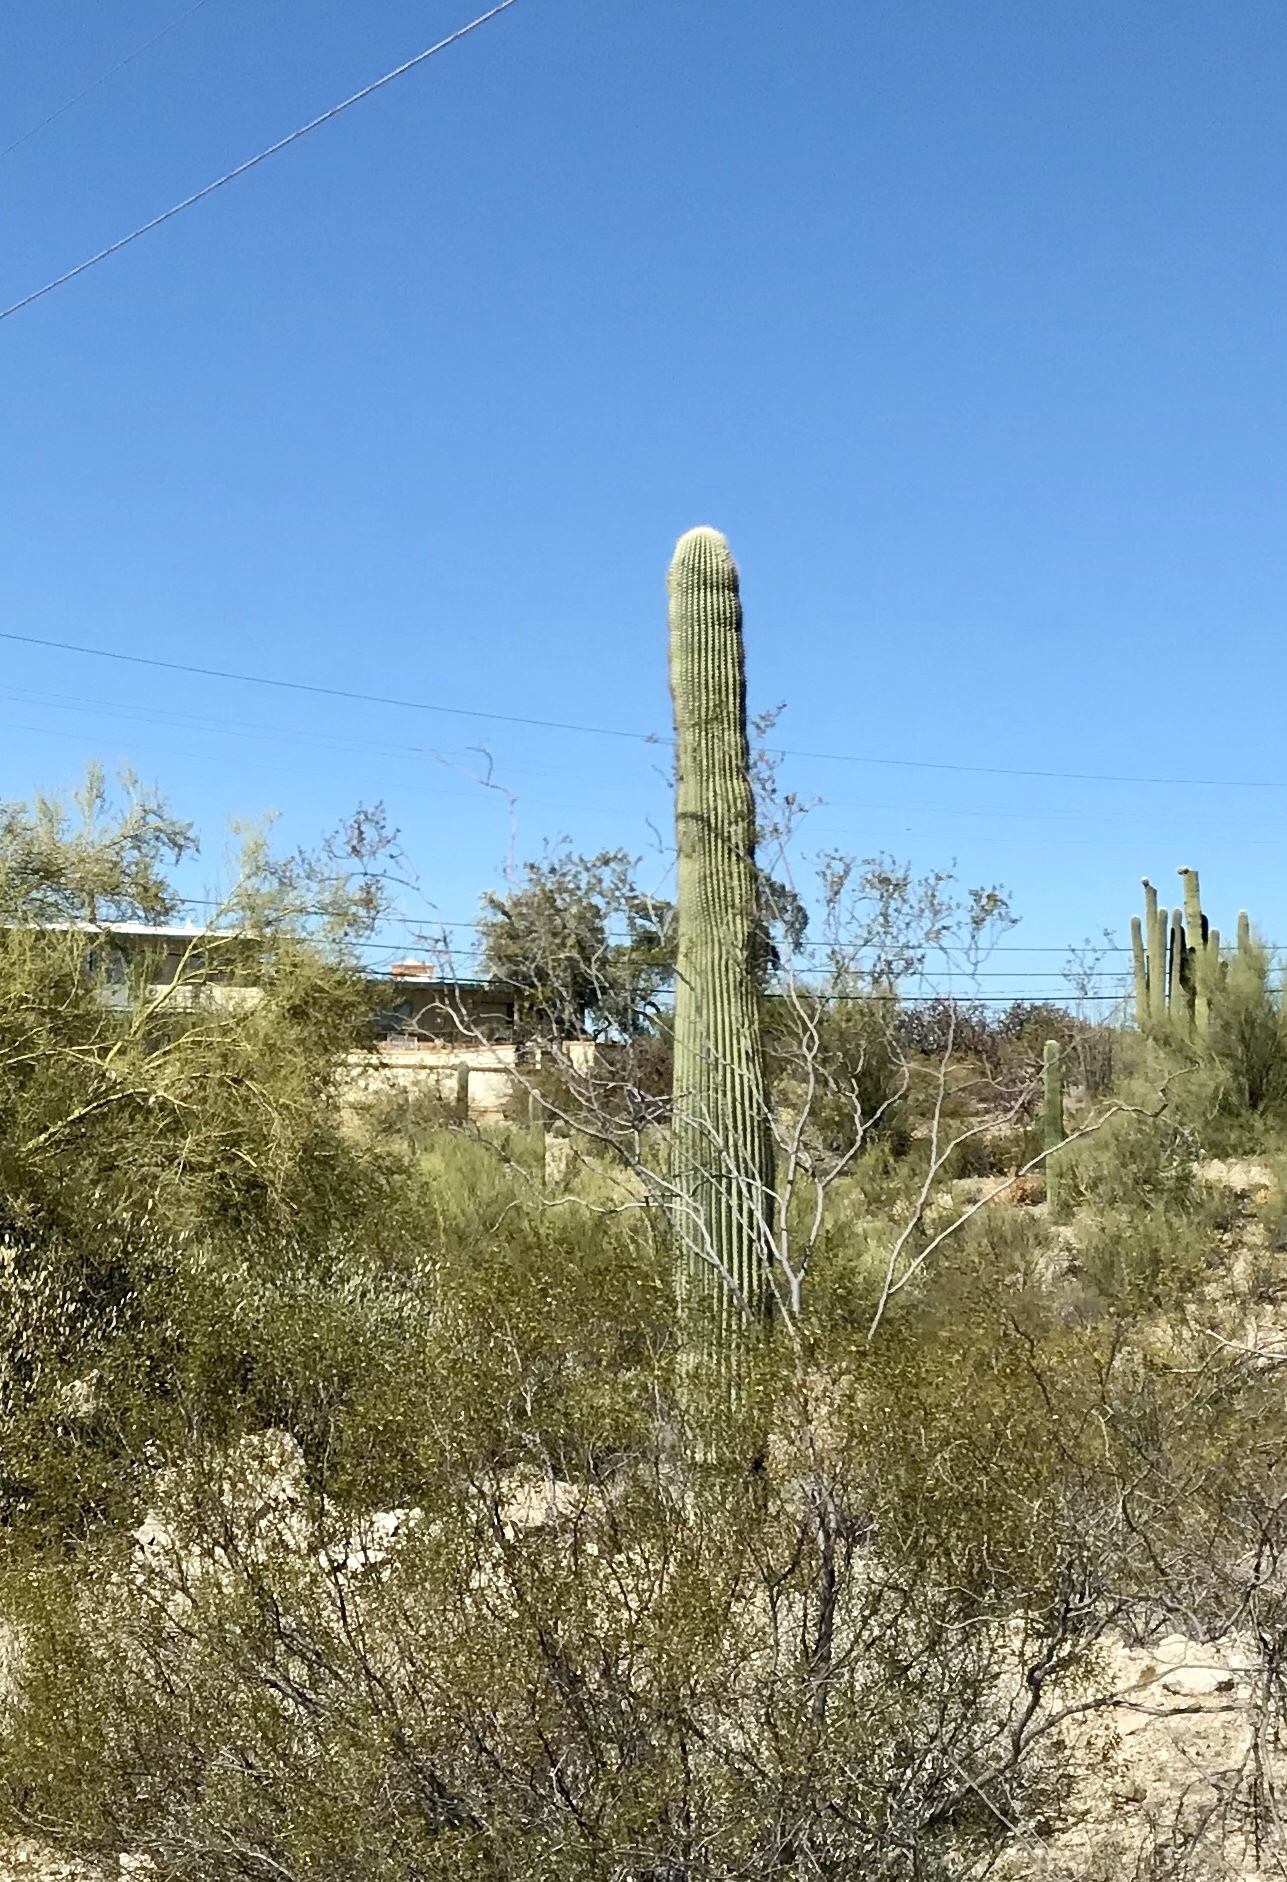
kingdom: Plantae
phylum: Tracheophyta
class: Magnoliopsida
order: Caryophyllales
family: Cactaceae
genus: Carnegiea
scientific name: Carnegiea gigantea
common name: Saguaro
